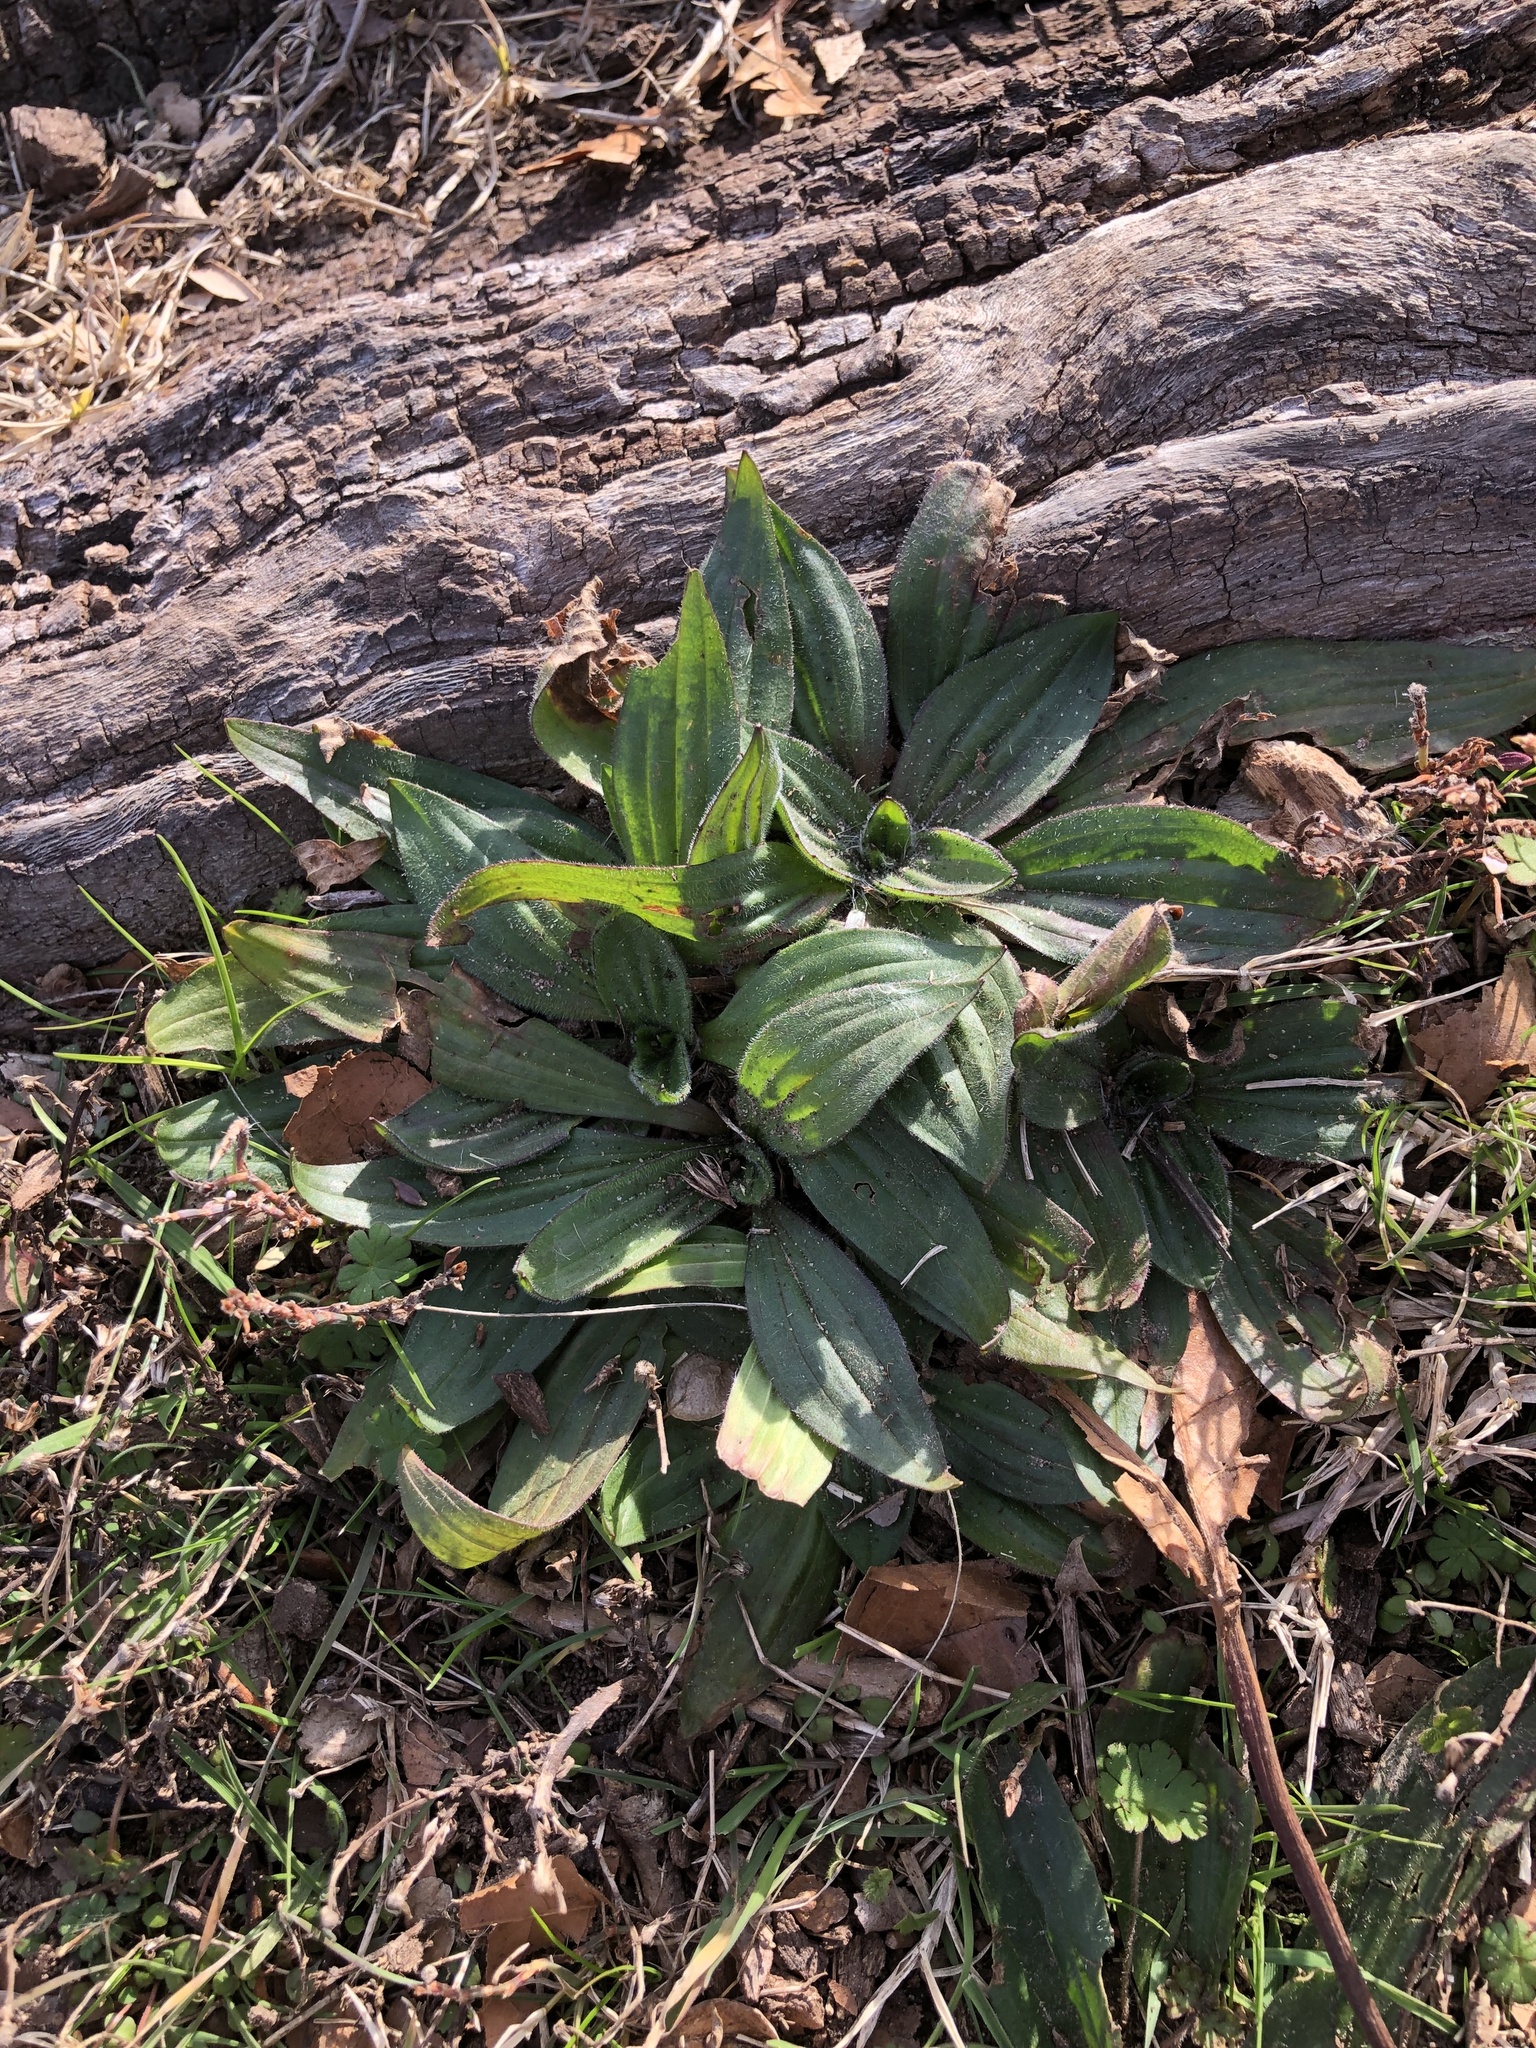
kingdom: Plantae
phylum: Tracheophyta
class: Magnoliopsida
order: Lamiales
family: Plantaginaceae
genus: Plantago
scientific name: Plantago lanceolata
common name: Ribwort plantain
